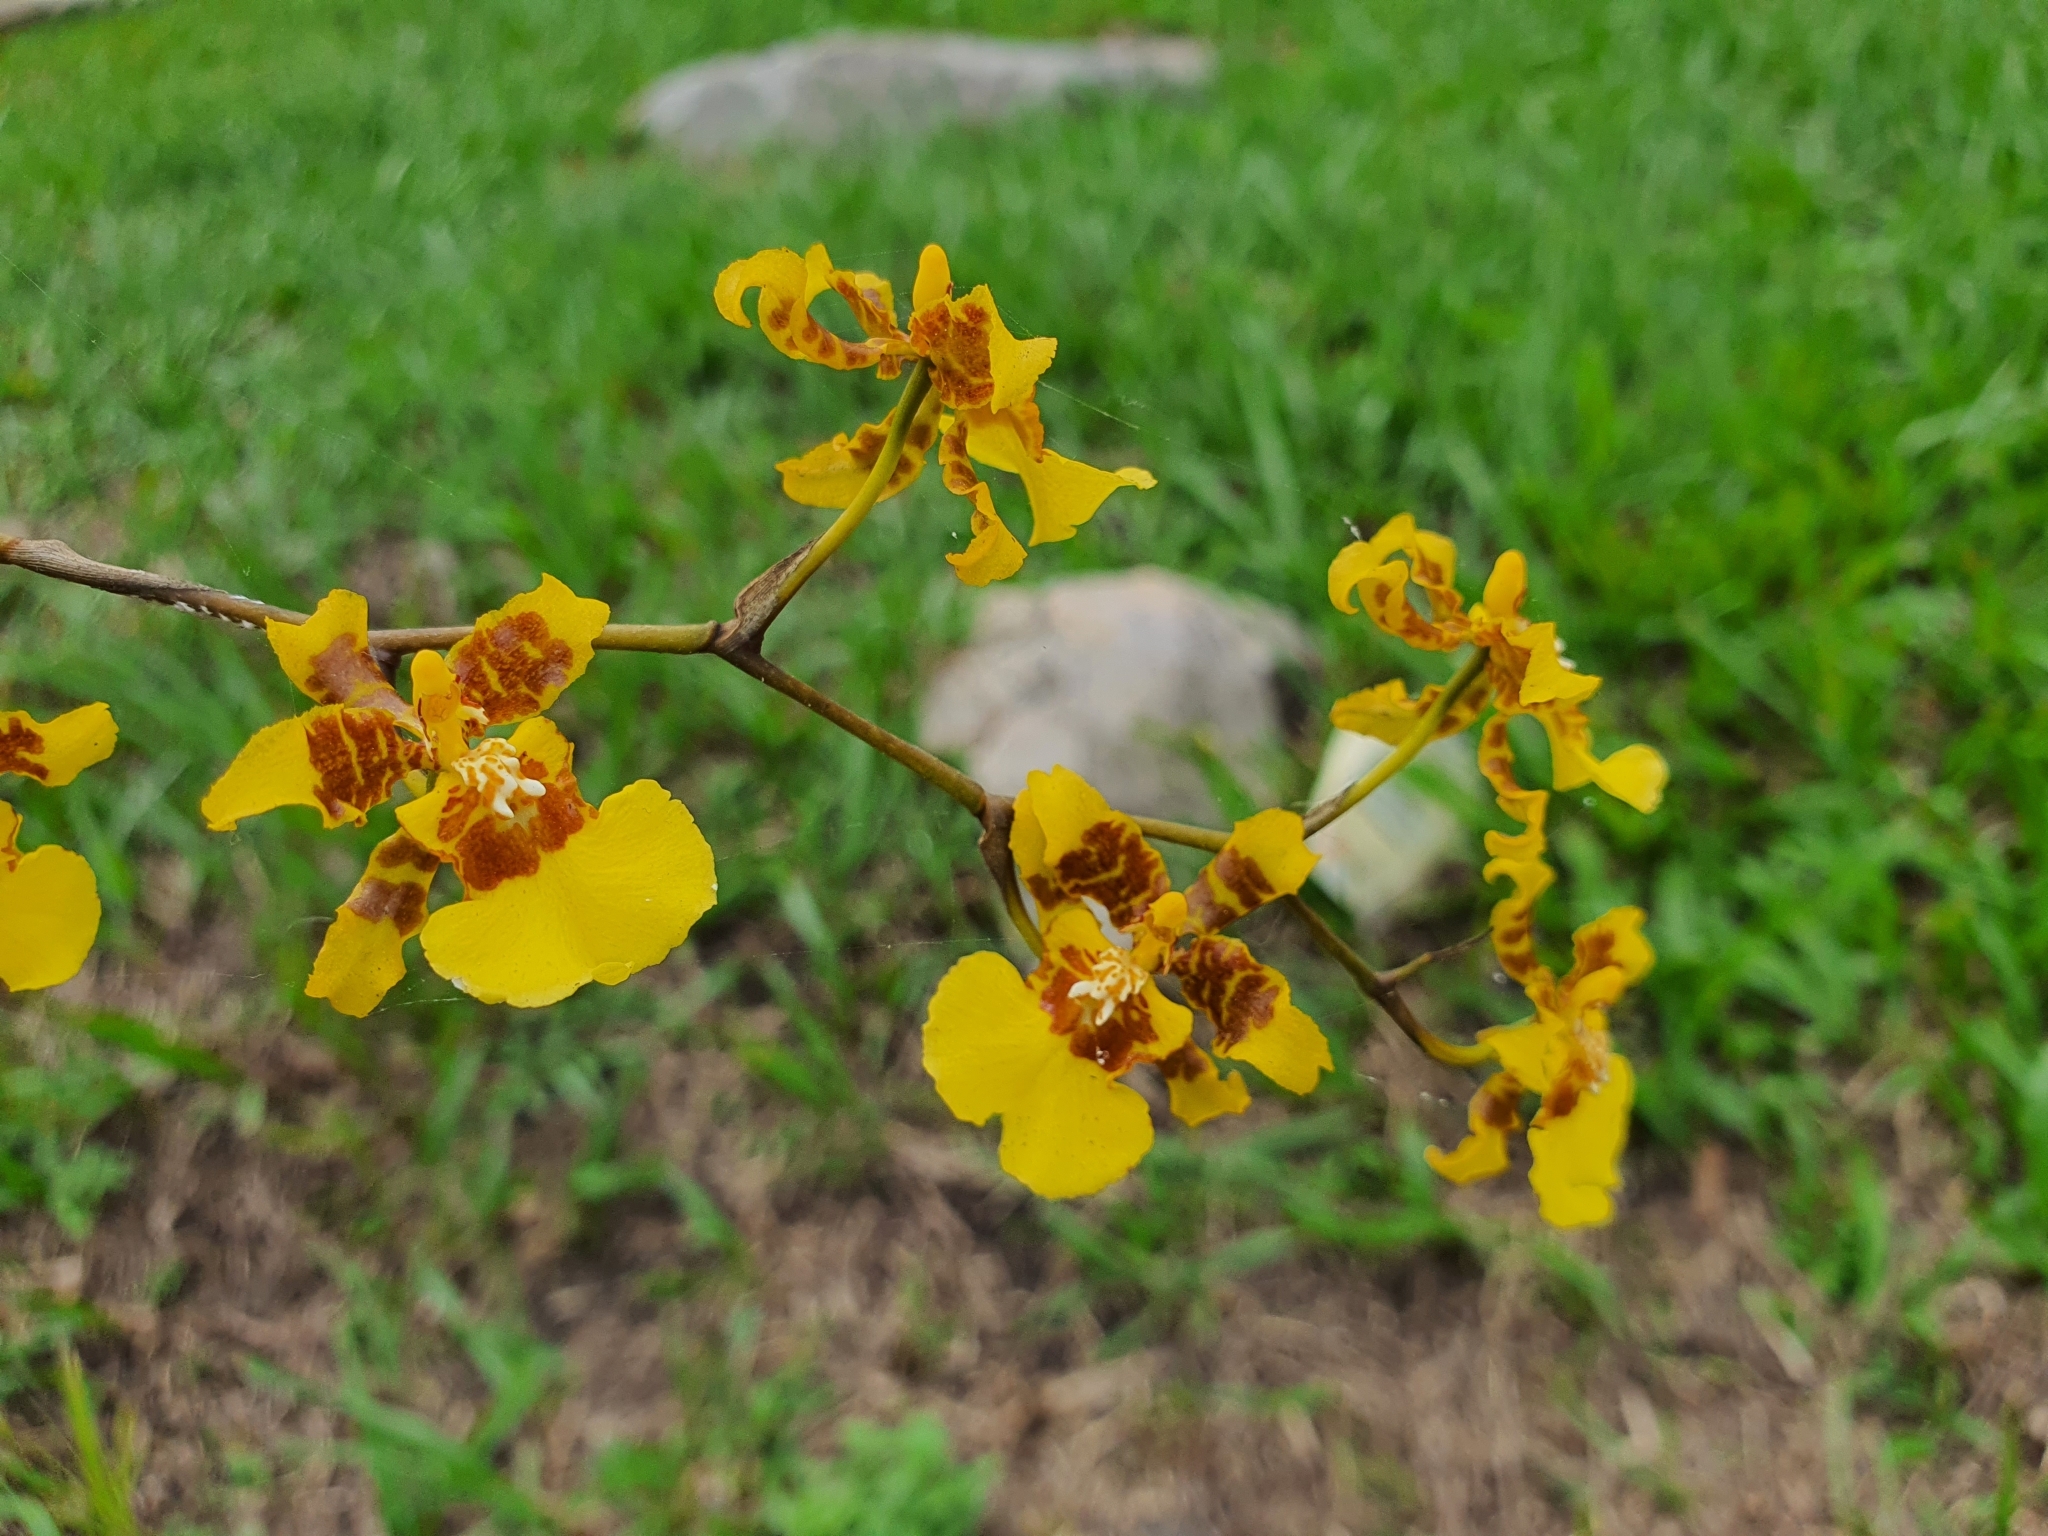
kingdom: Plantae
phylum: Tracheophyta
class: Liliopsida
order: Asparagales
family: Orchidaceae
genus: Oncidium
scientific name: Oncidium sphacelatum
